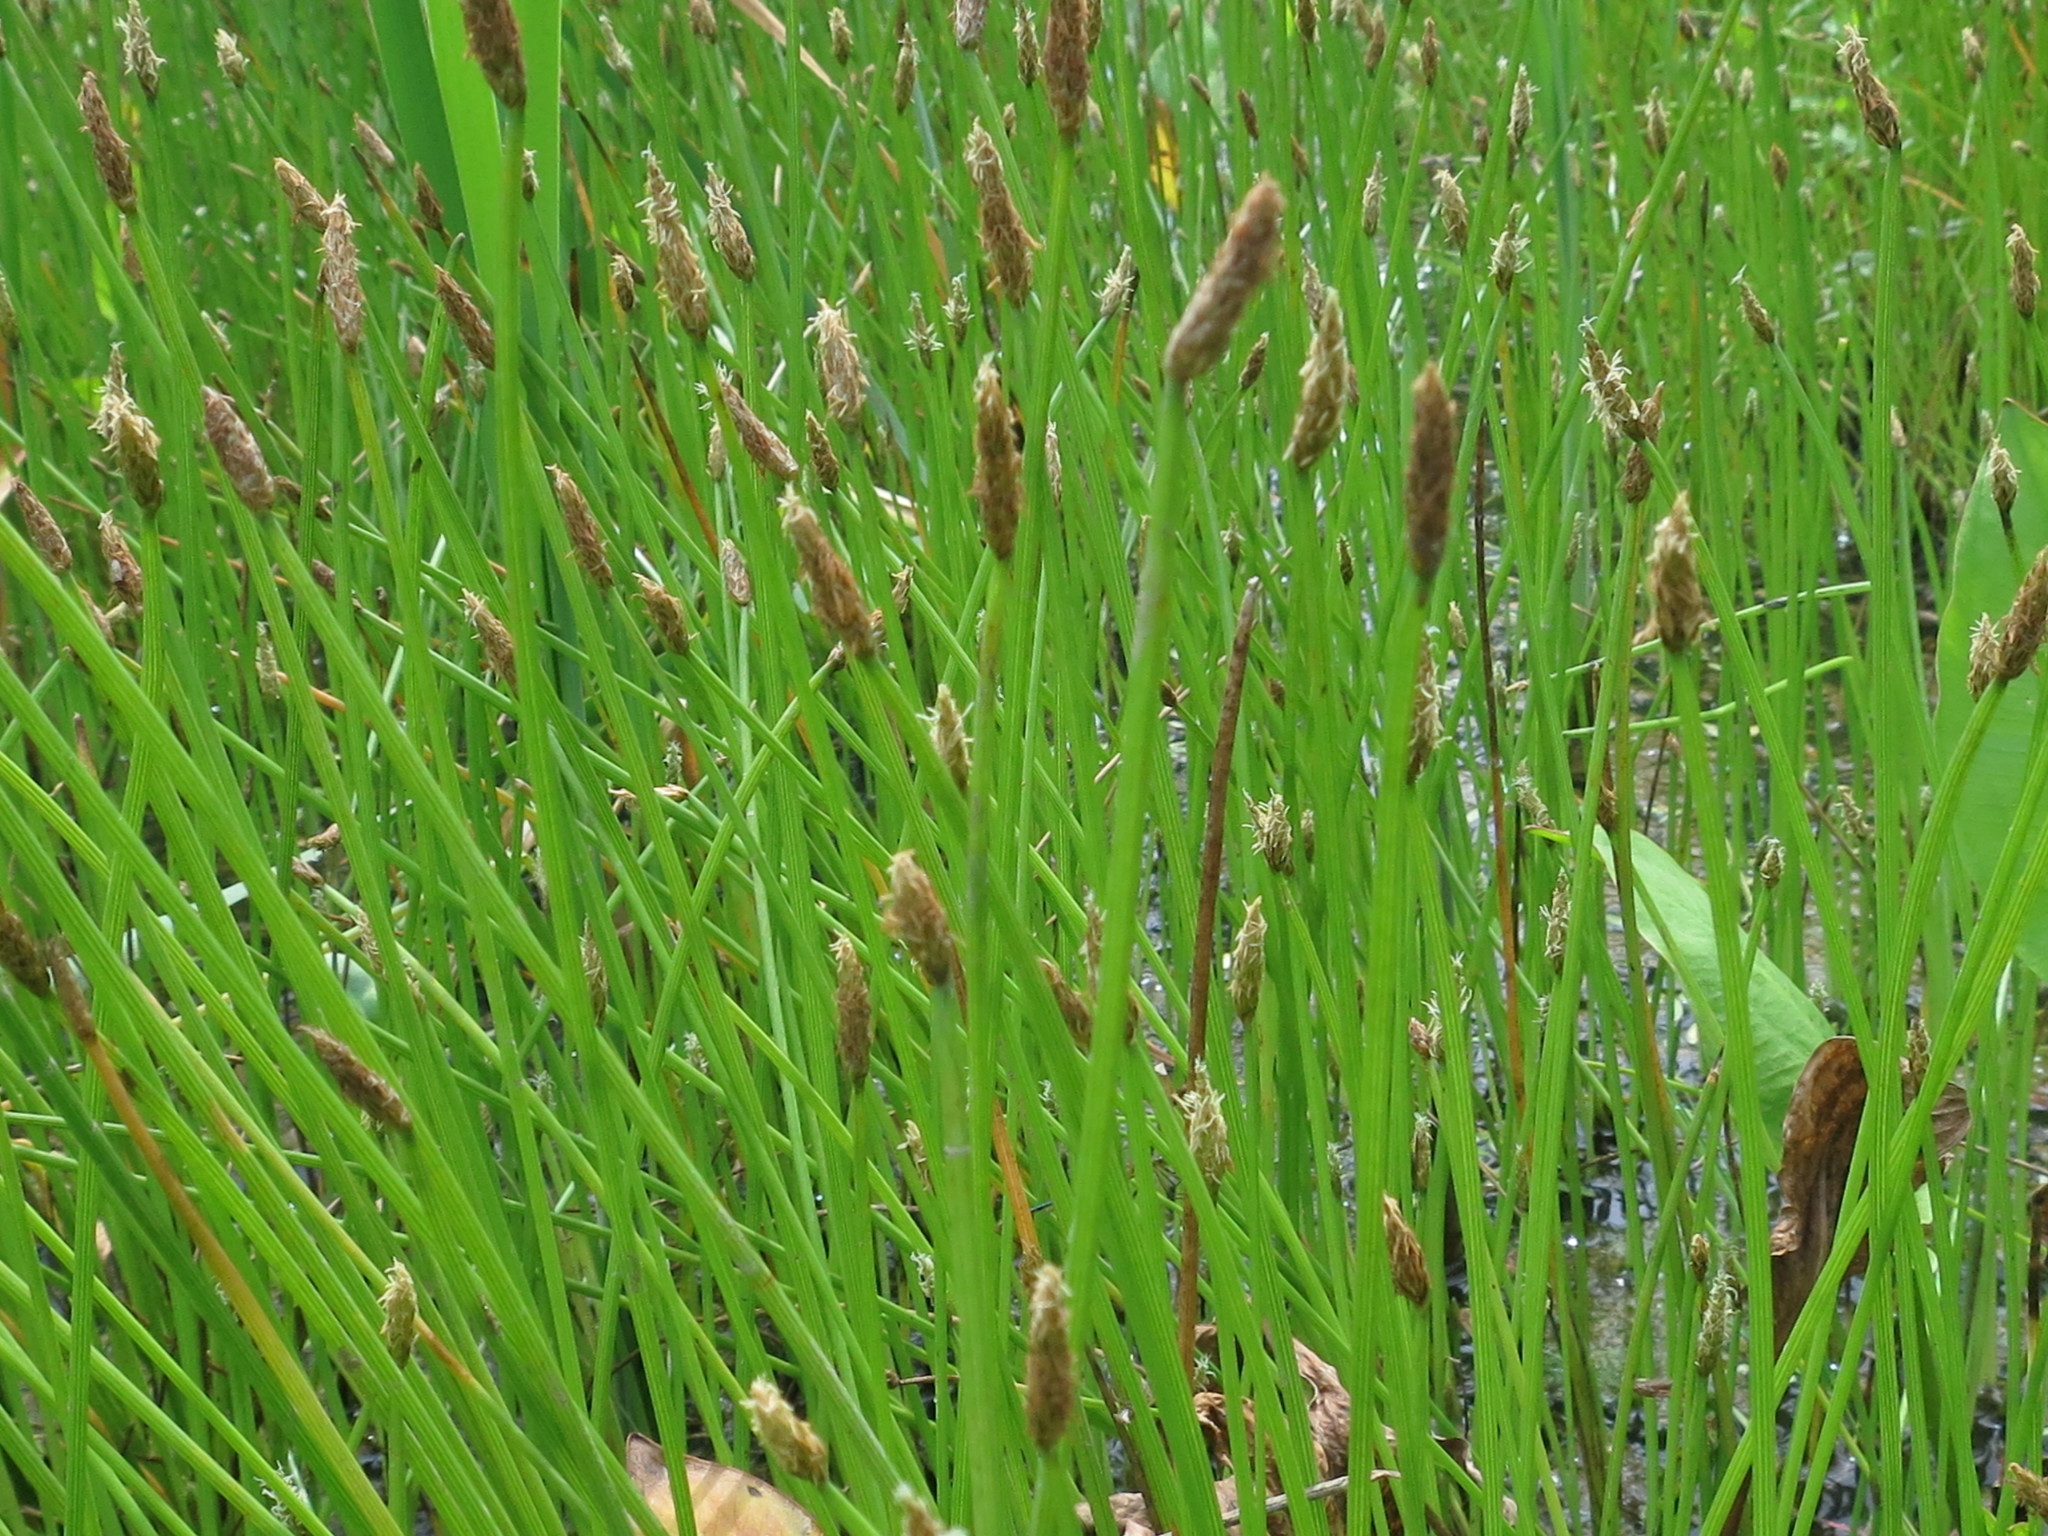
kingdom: Plantae
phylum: Tracheophyta
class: Liliopsida
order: Poales
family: Cyperaceae
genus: Eleocharis
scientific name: Eleocharis ussuriensis
